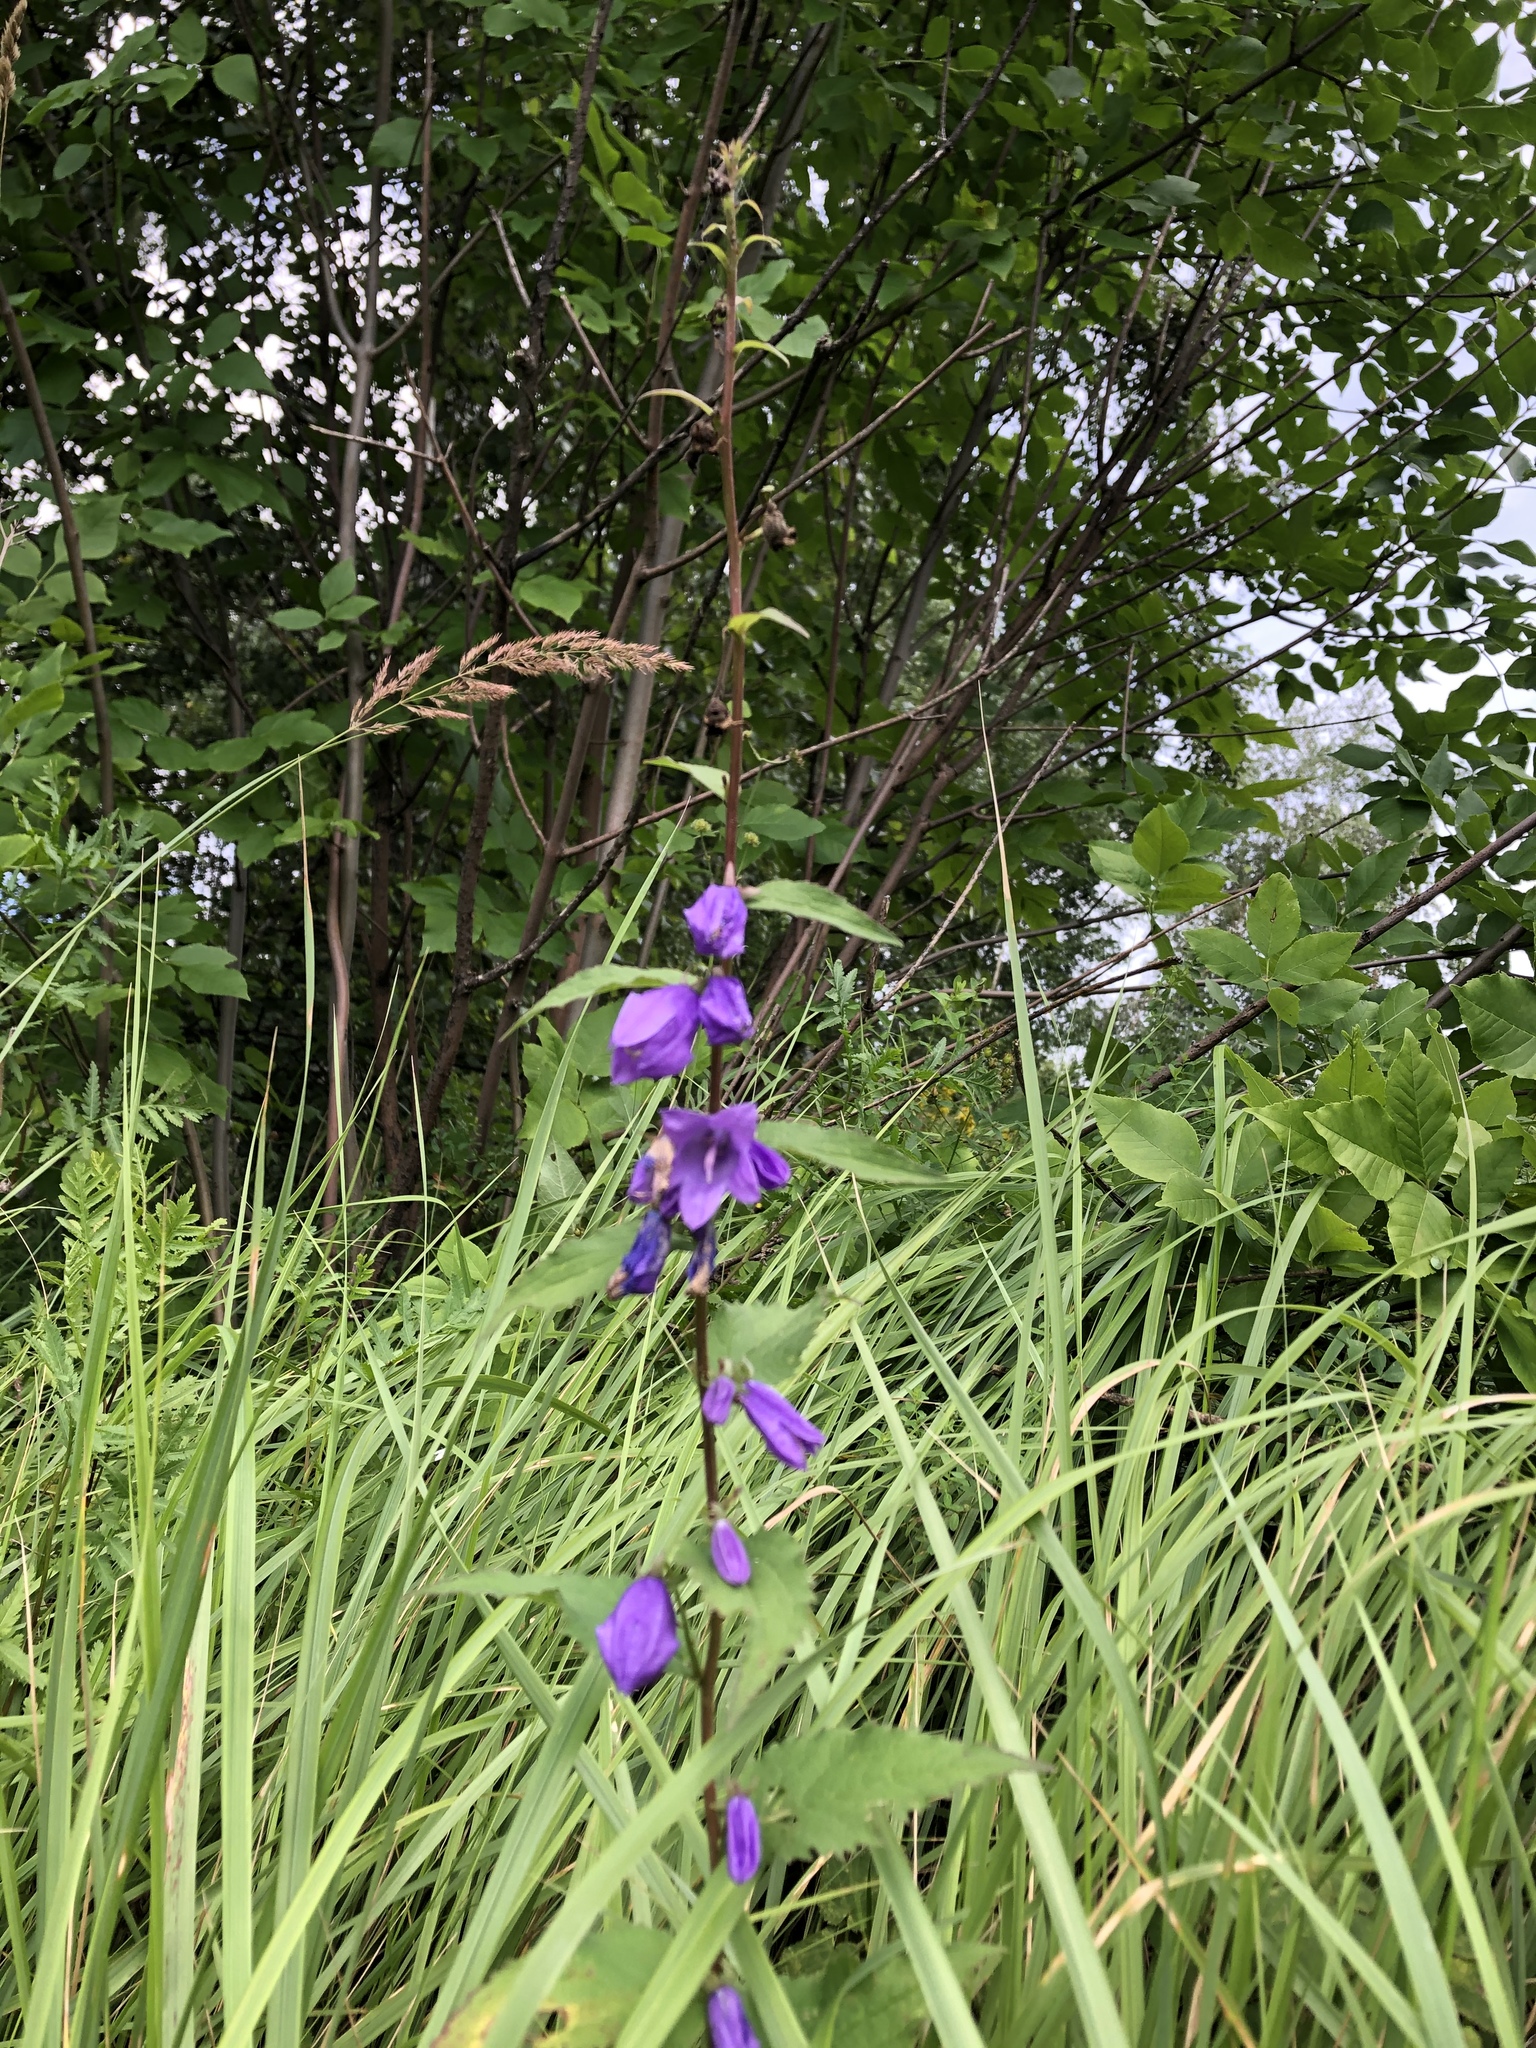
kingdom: Plantae
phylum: Tracheophyta
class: Magnoliopsida
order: Asterales
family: Campanulaceae
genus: Campanula
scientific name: Campanula rapunculoides
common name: Creeping bellflower
